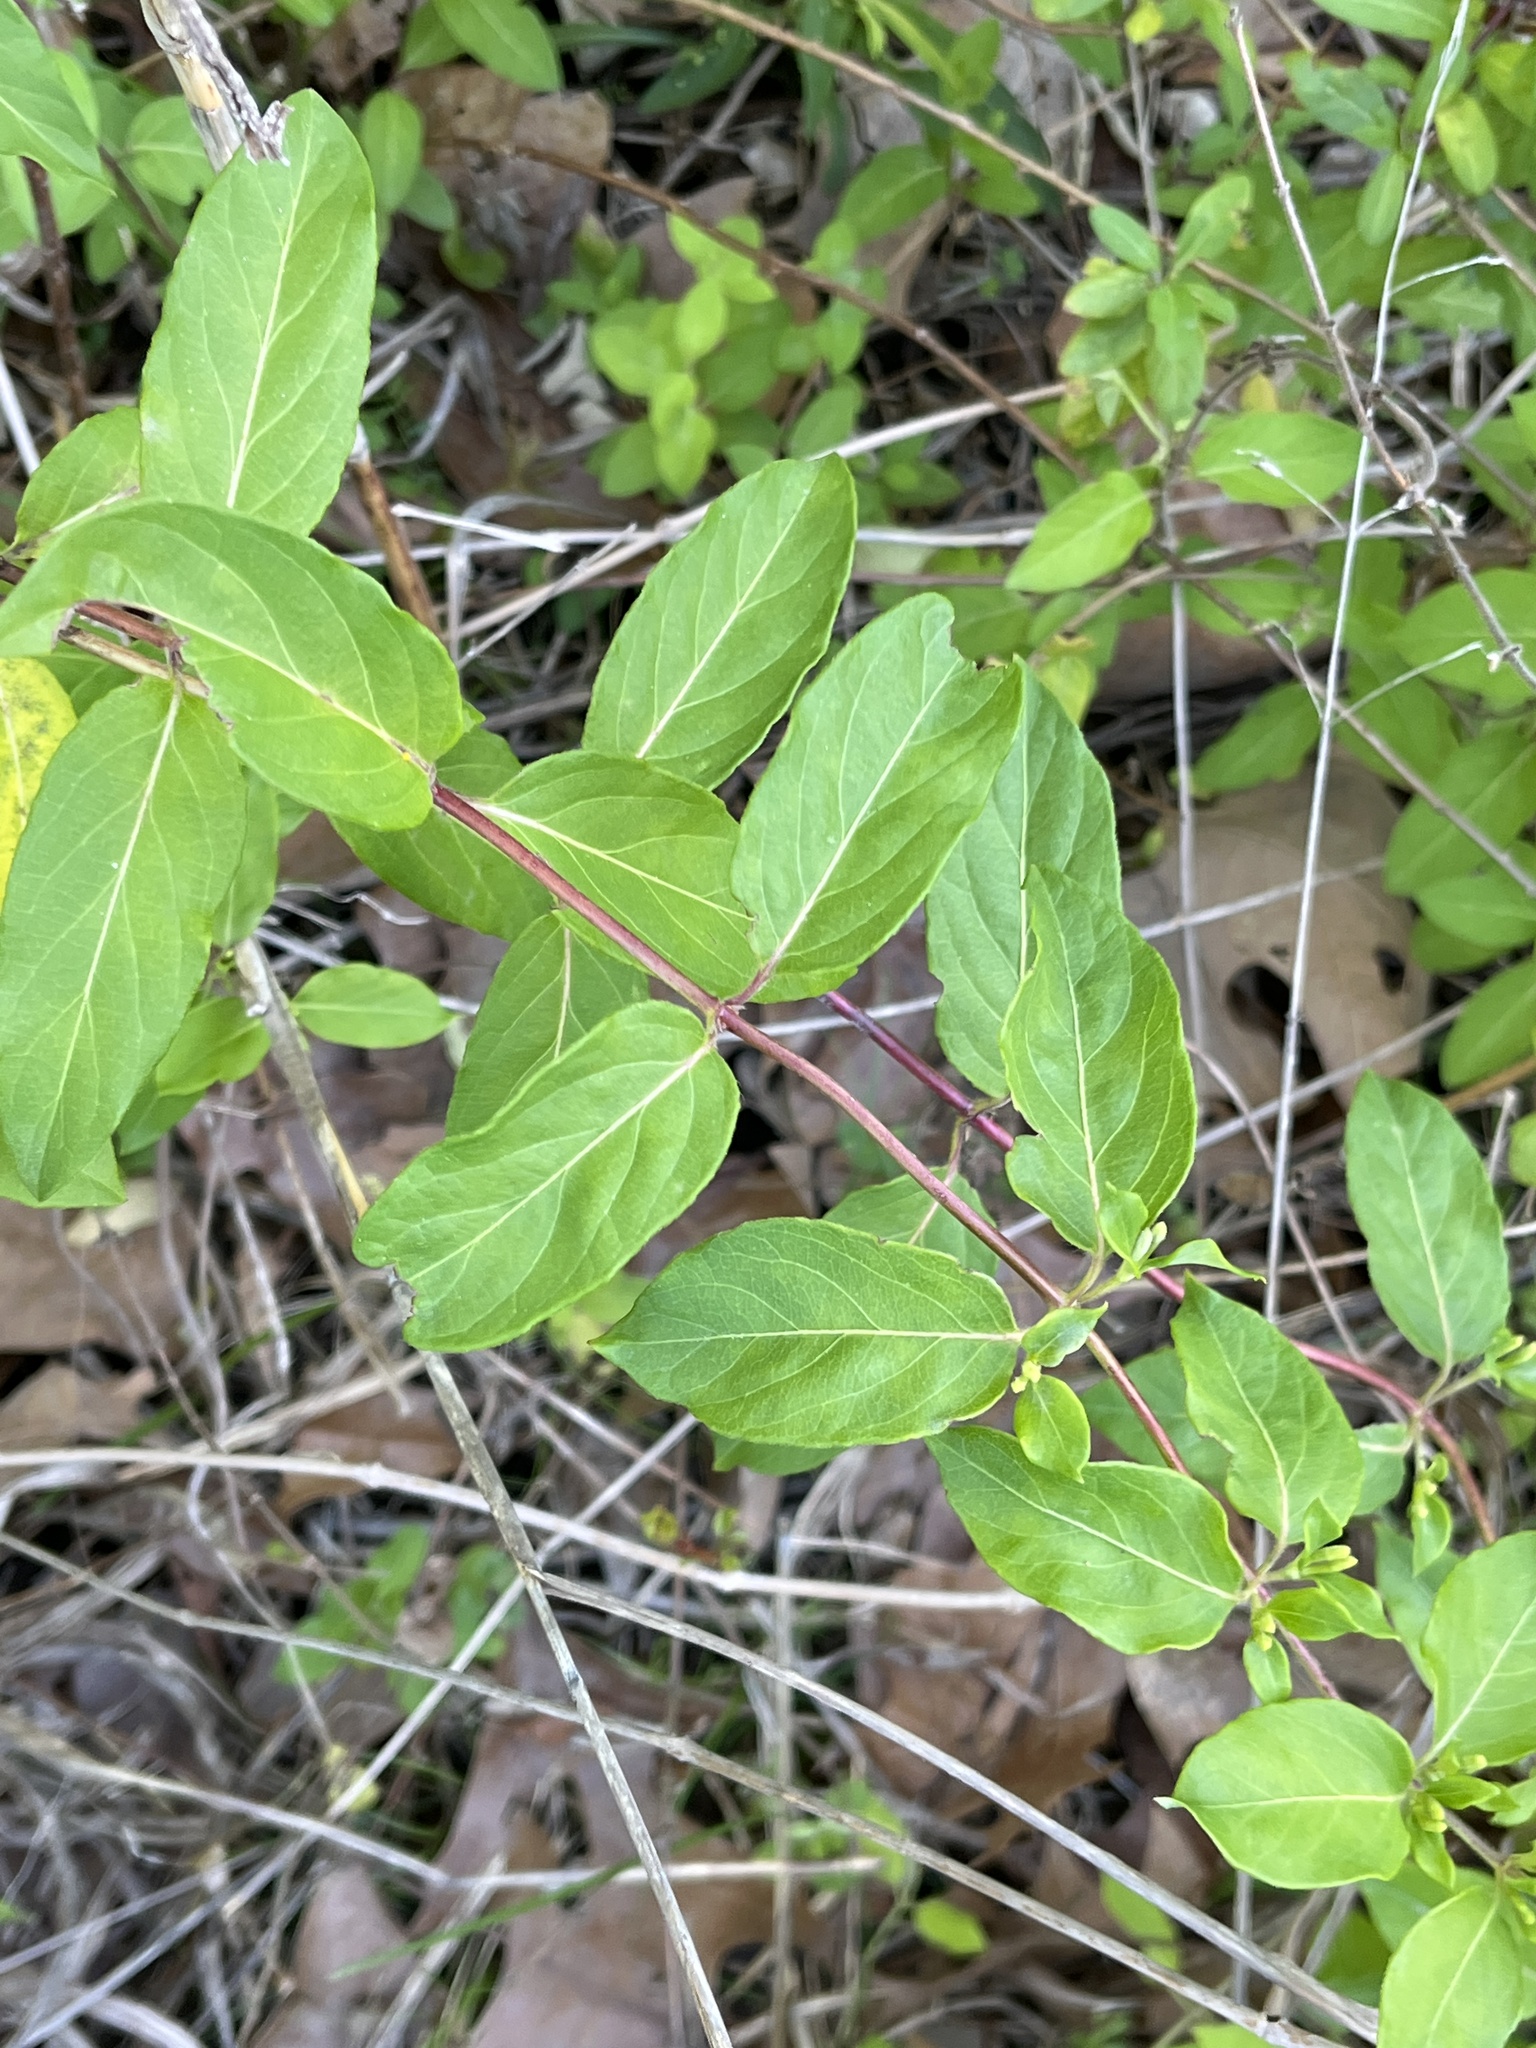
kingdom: Plantae
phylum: Tracheophyta
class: Magnoliopsida
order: Dipsacales
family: Caprifoliaceae
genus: Lonicera
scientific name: Lonicera japonica
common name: Japanese honeysuckle
